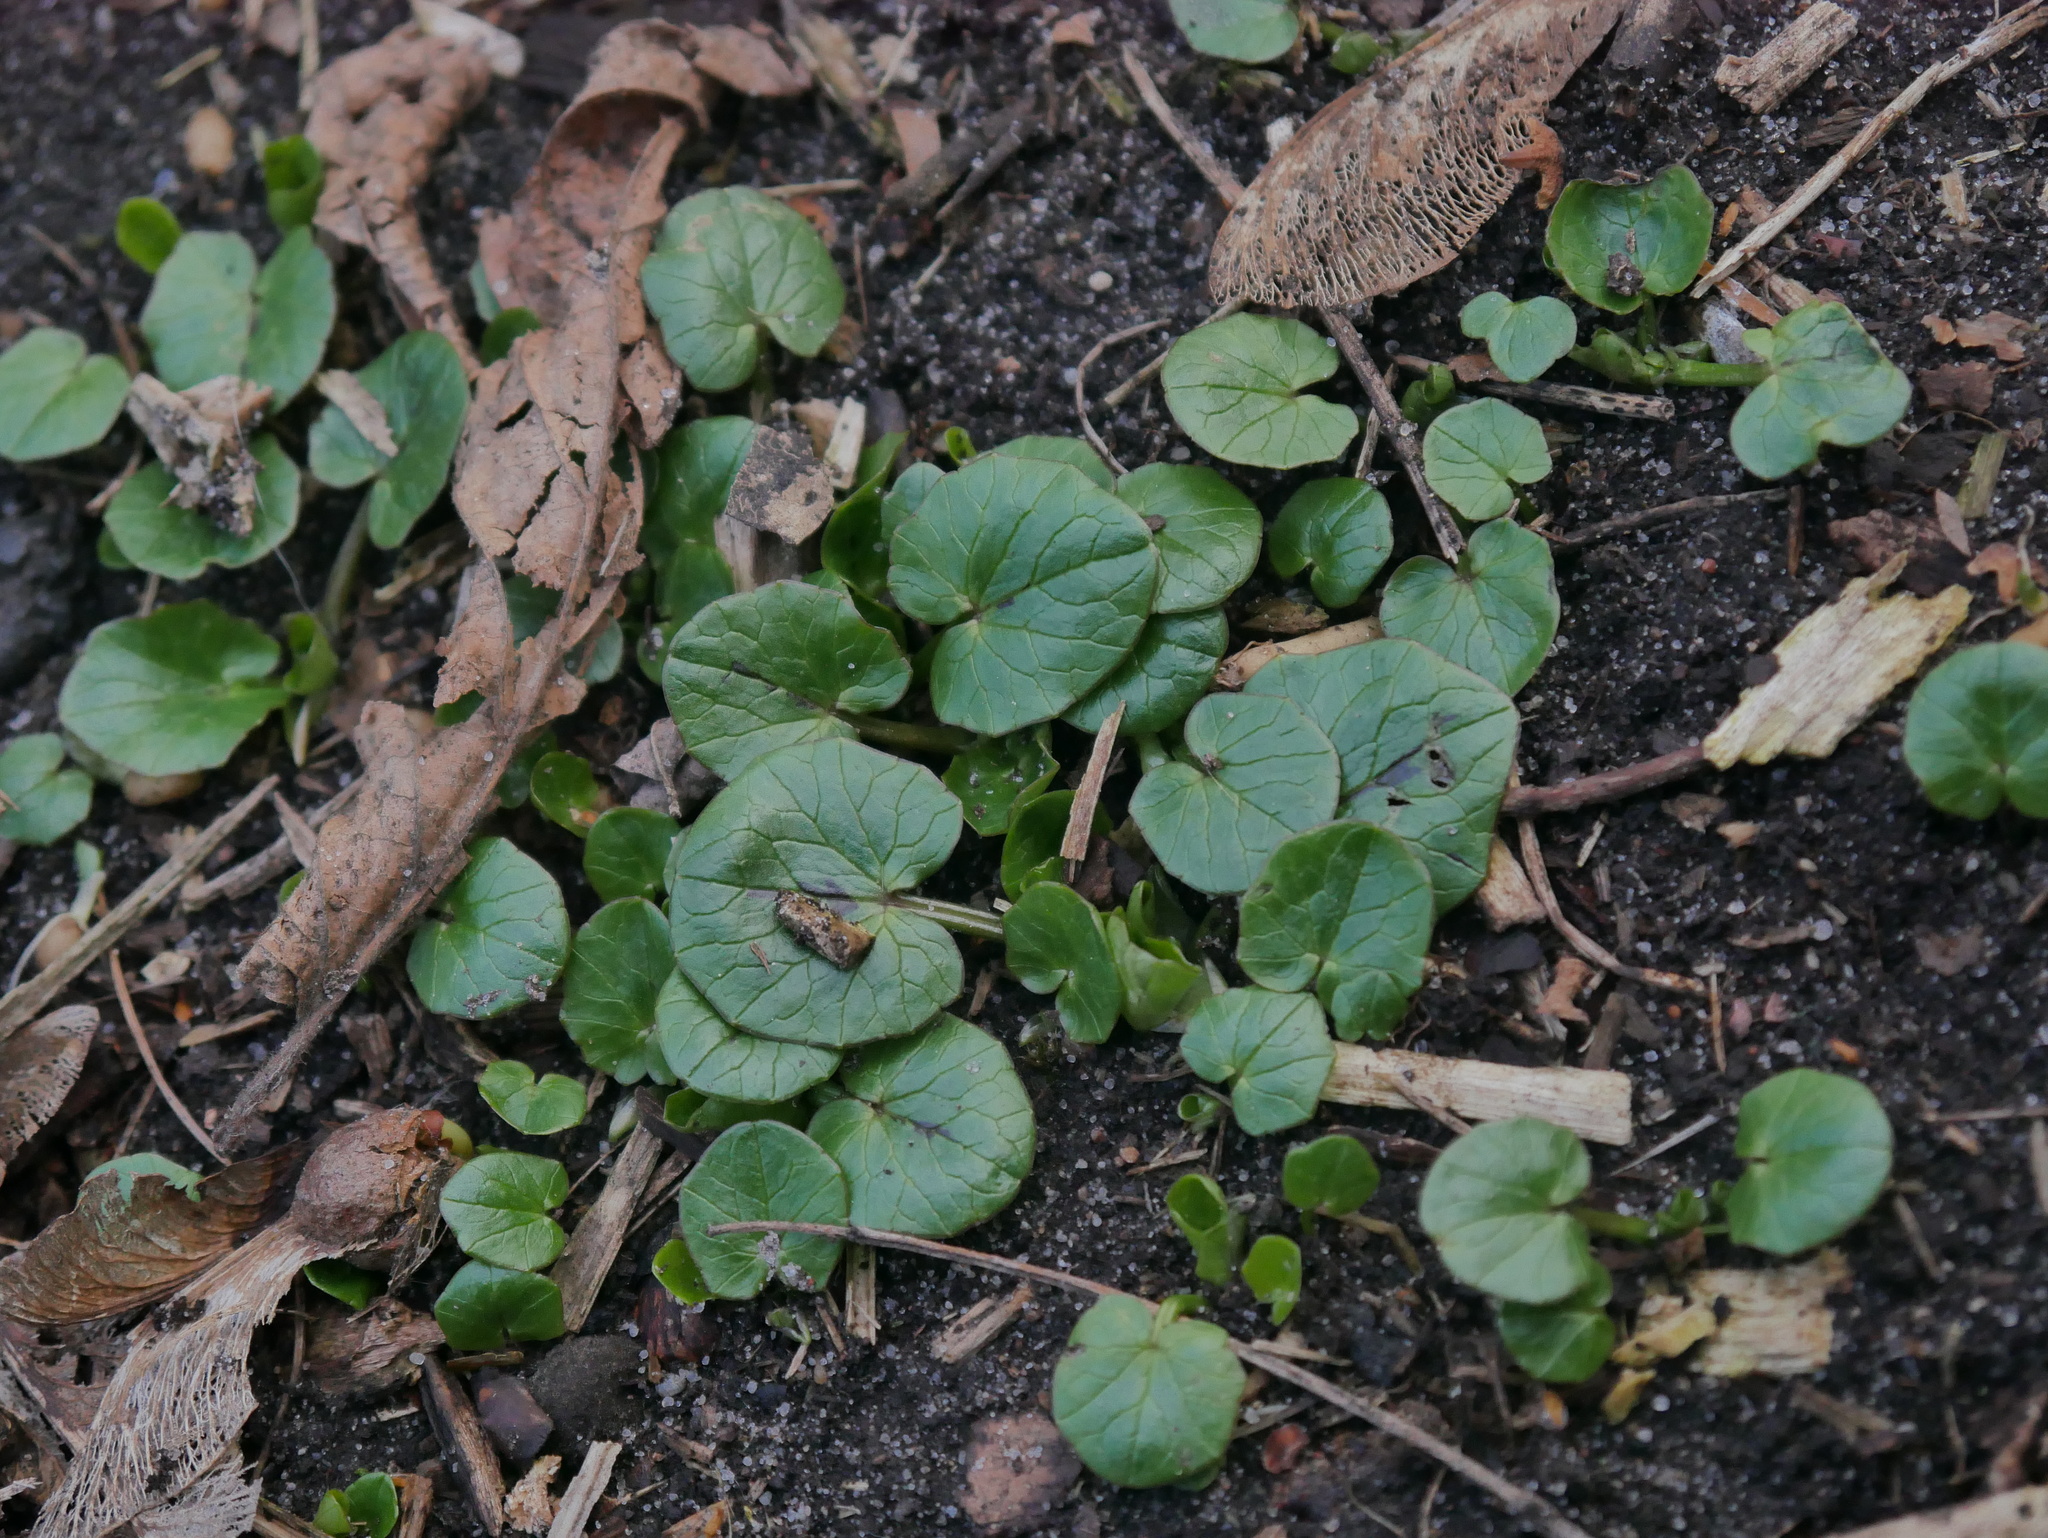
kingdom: Plantae
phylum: Tracheophyta
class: Magnoliopsida
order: Ranunculales
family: Ranunculaceae
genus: Ficaria
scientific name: Ficaria verna
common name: Lesser celandine
